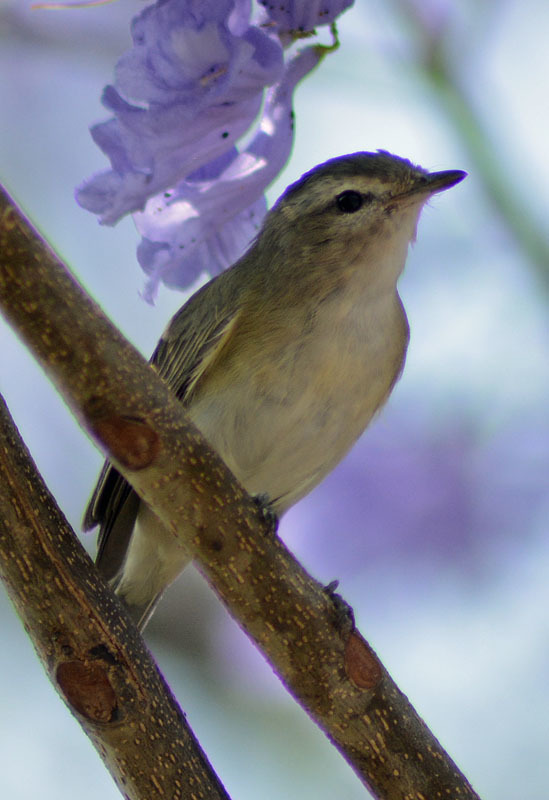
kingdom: Animalia
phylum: Chordata
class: Aves
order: Passeriformes
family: Vireonidae
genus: Vireo
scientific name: Vireo gilvus
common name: Warbling vireo
